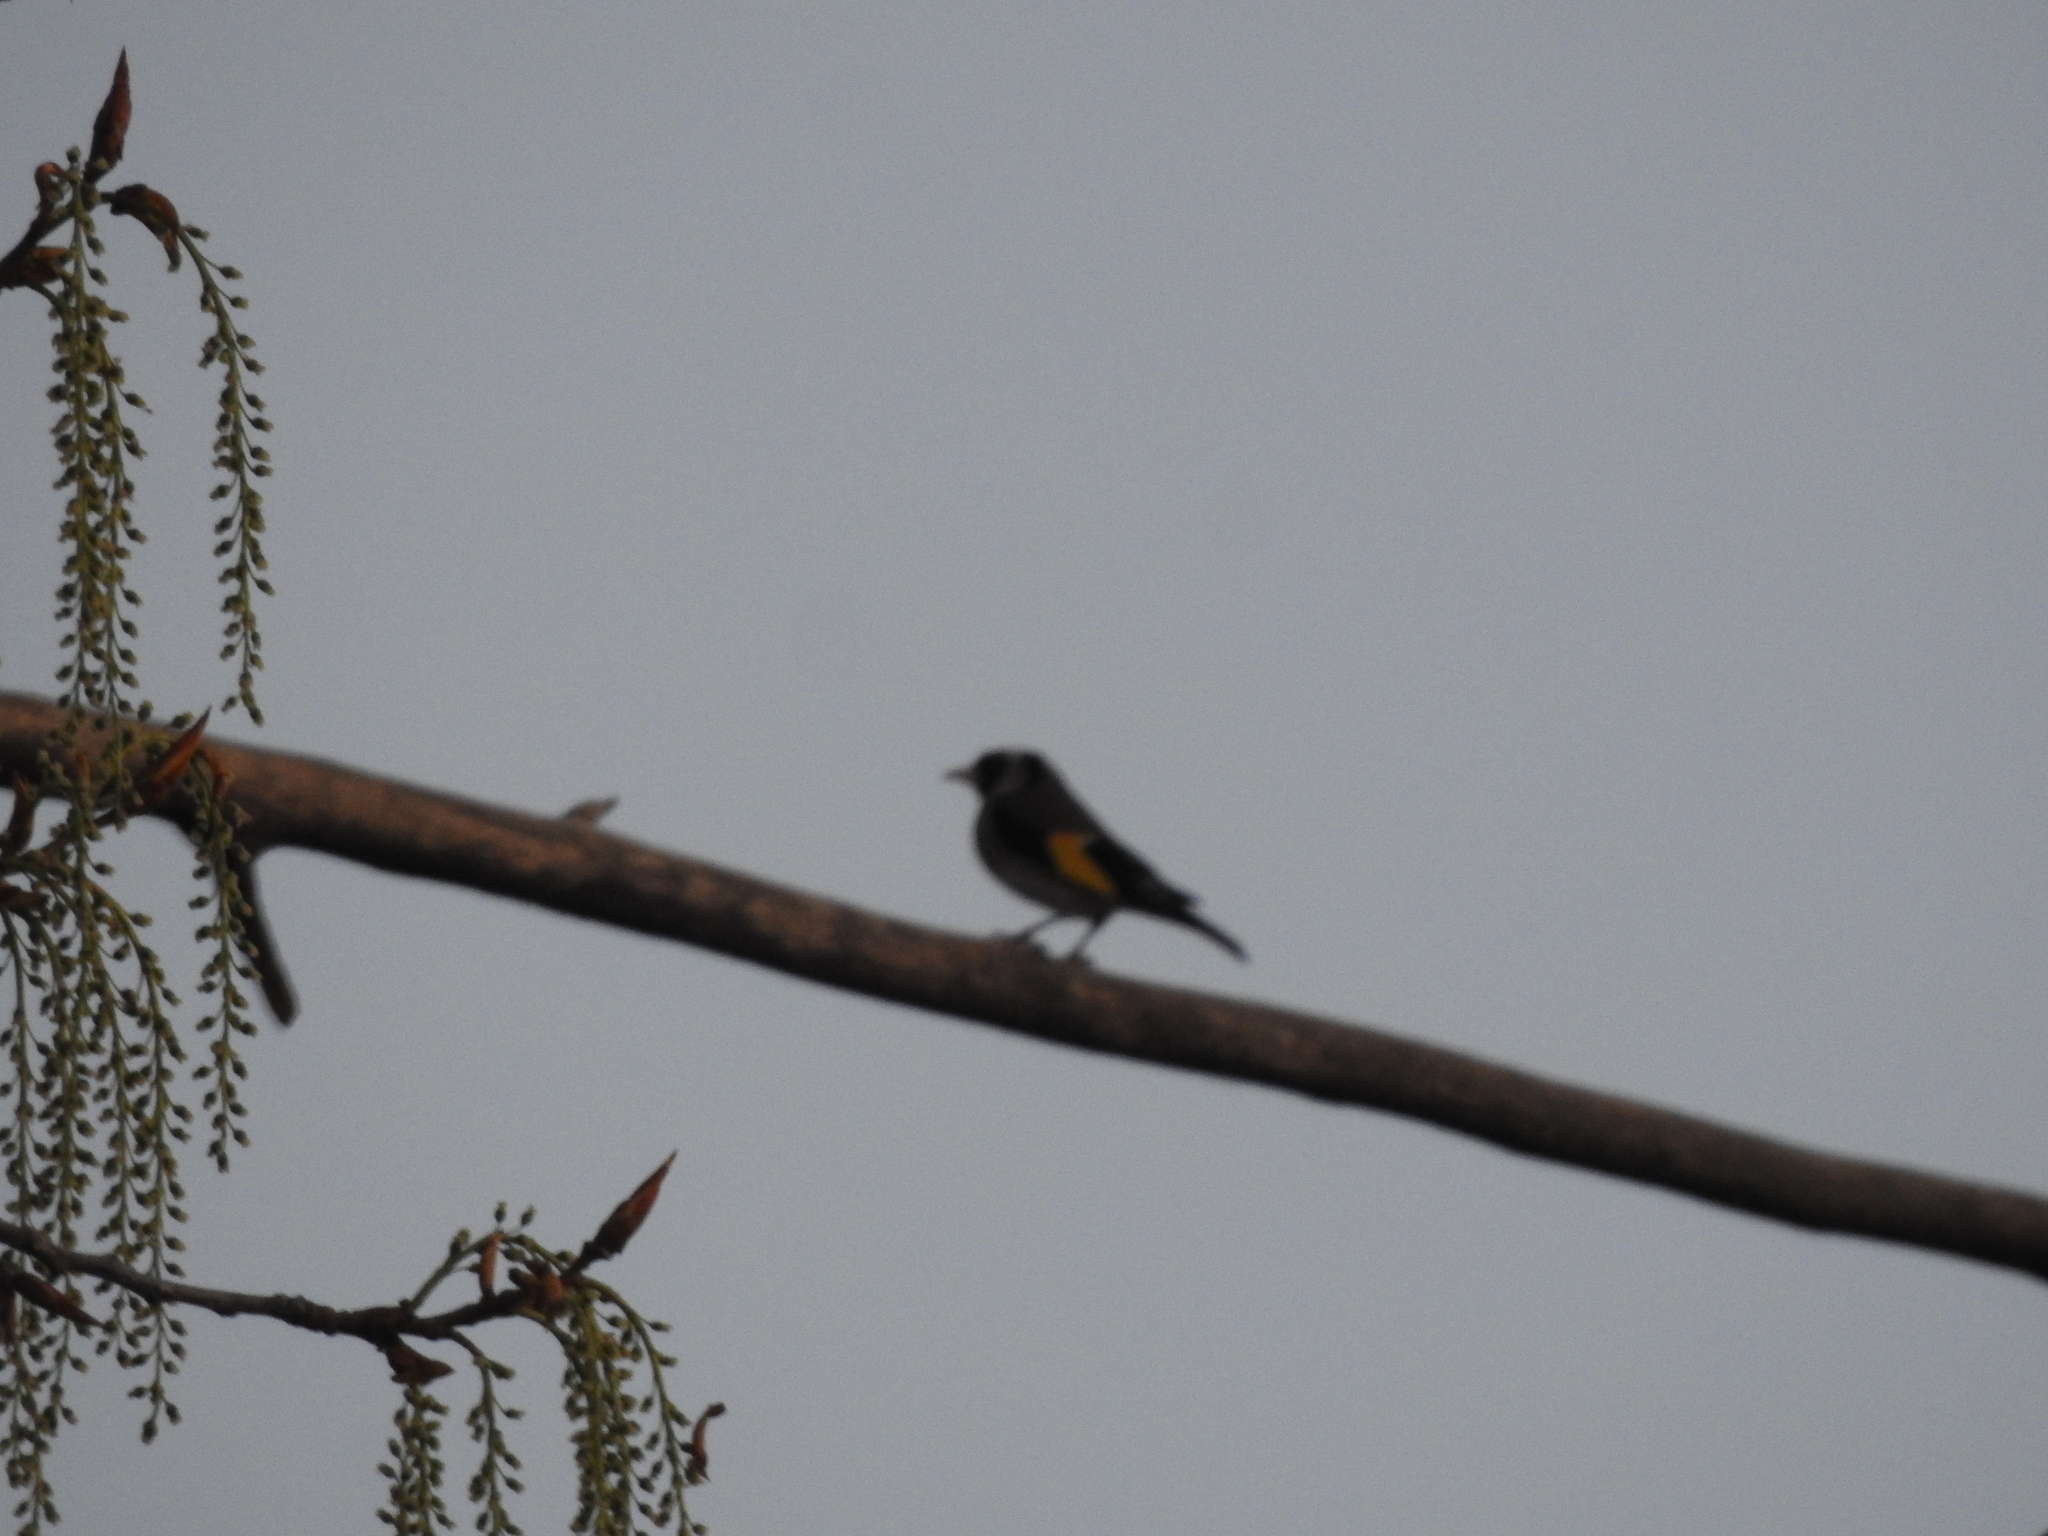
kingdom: Animalia
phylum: Chordata
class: Aves
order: Passeriformes
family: Fringillidae
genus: Carduelis
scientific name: Carduelis carduelis
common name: European goldfinch
